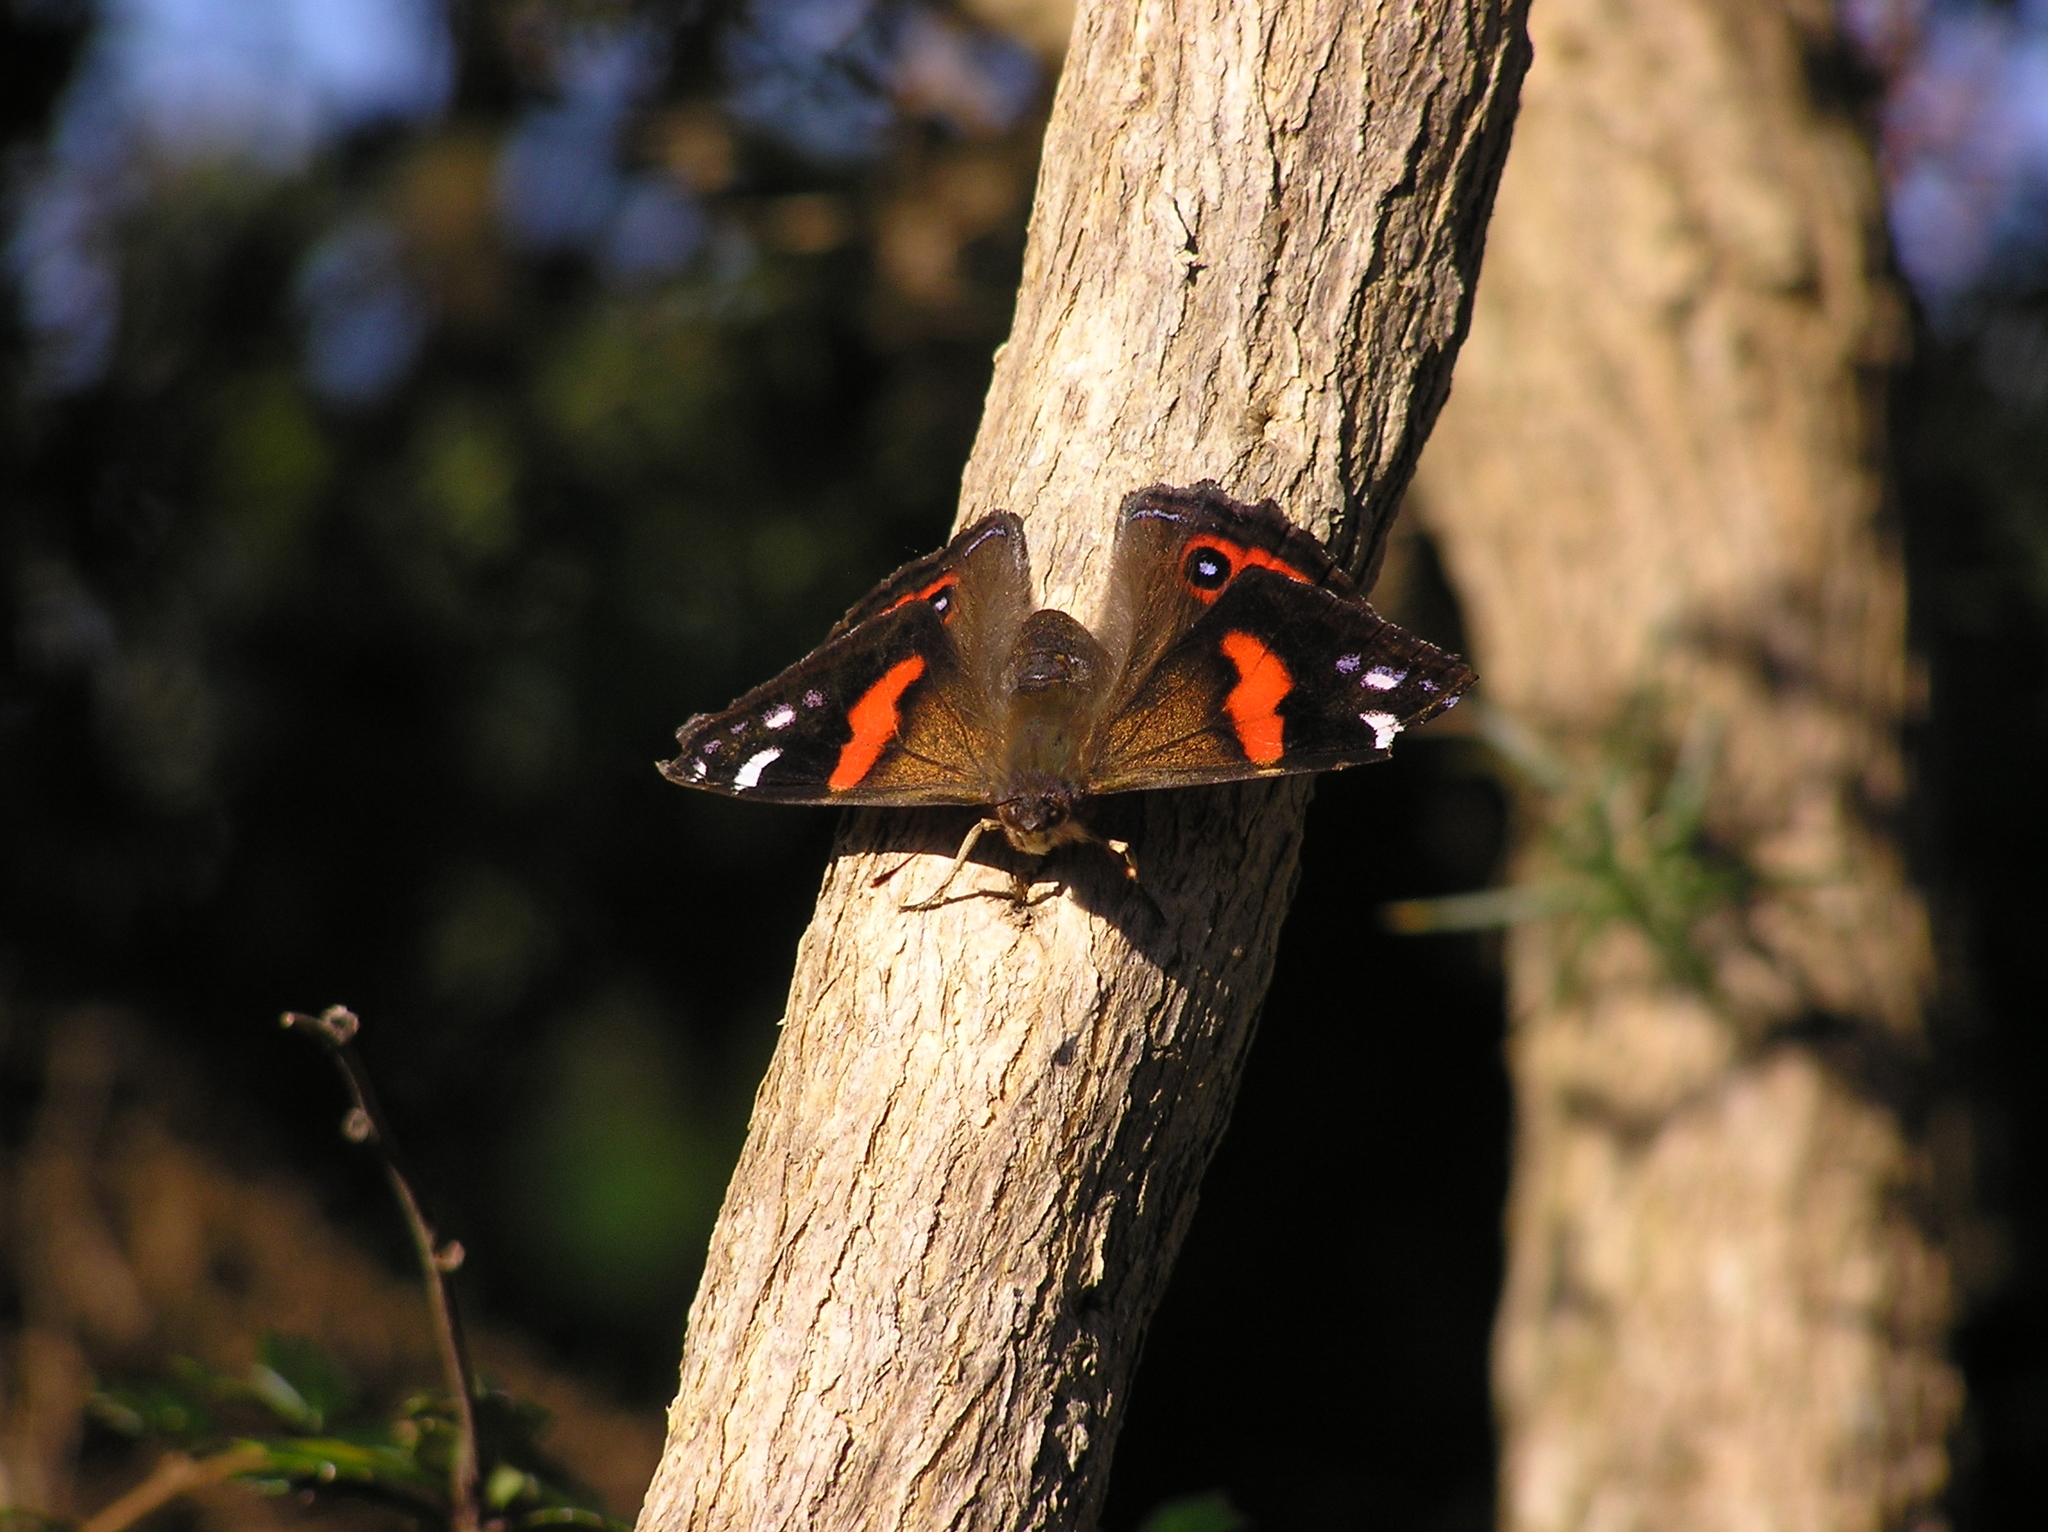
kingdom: Animalia
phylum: Arthropoda
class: Insecta
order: Lepidoptera
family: Nymphalidae
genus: Vanessa
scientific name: Vanessa gonerilla
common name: New zealand red admiral
